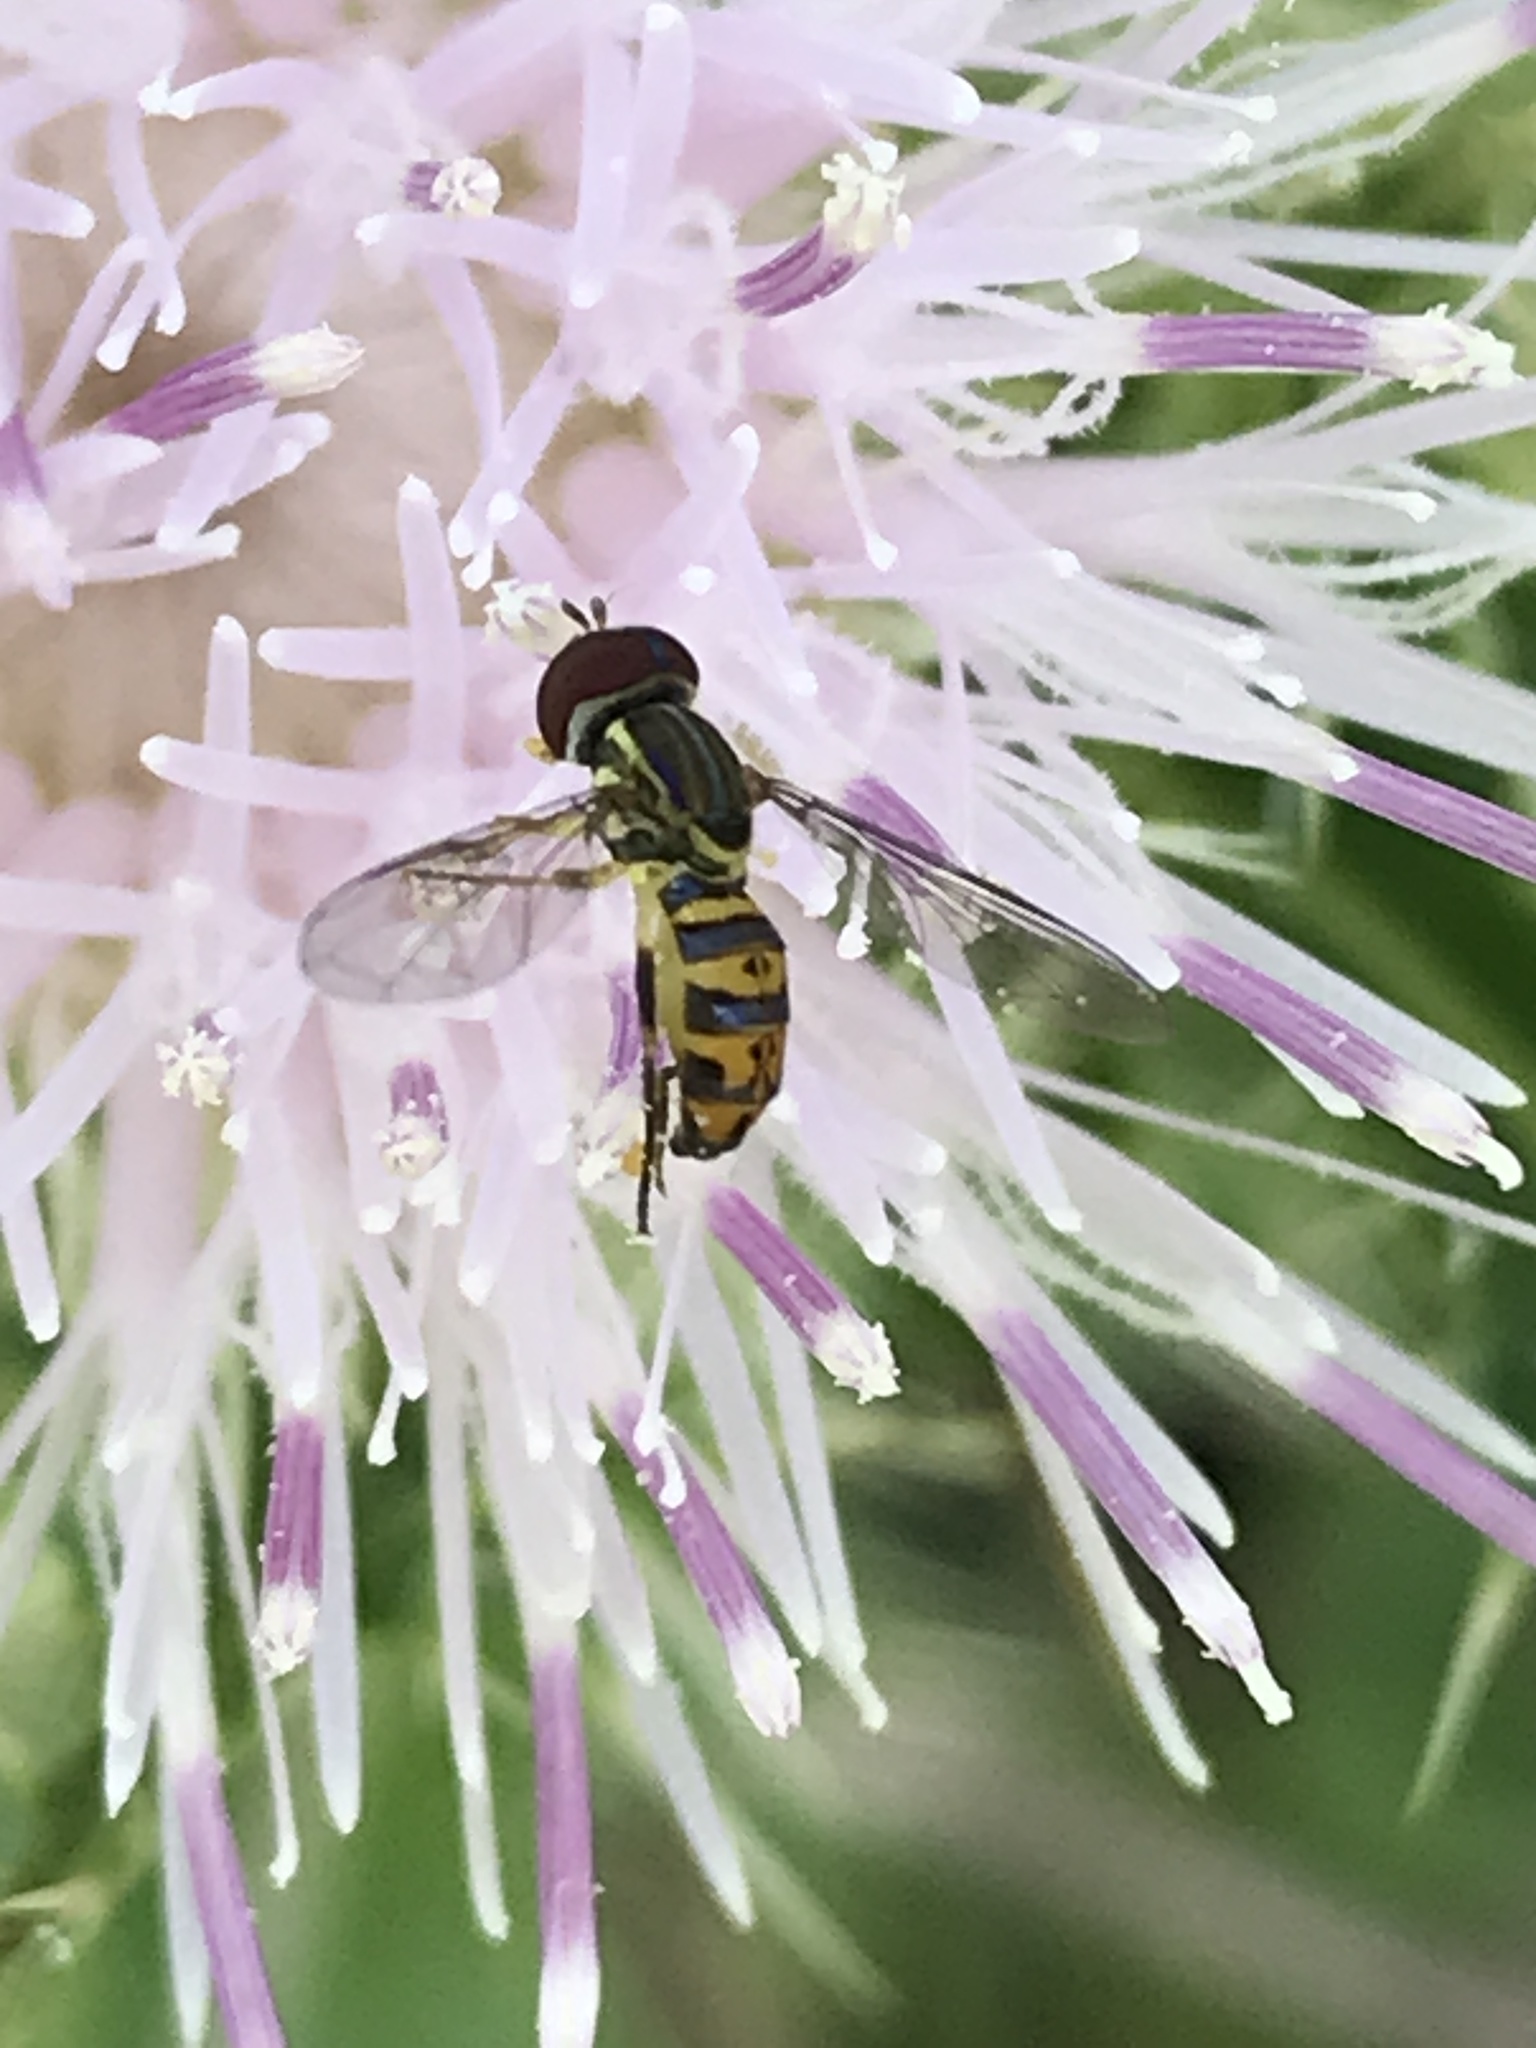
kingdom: Animalia
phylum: Arthropoda
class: Insecta
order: Diptera
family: Syrphidae
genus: Toxomerus
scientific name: Toxomerus parvulus
